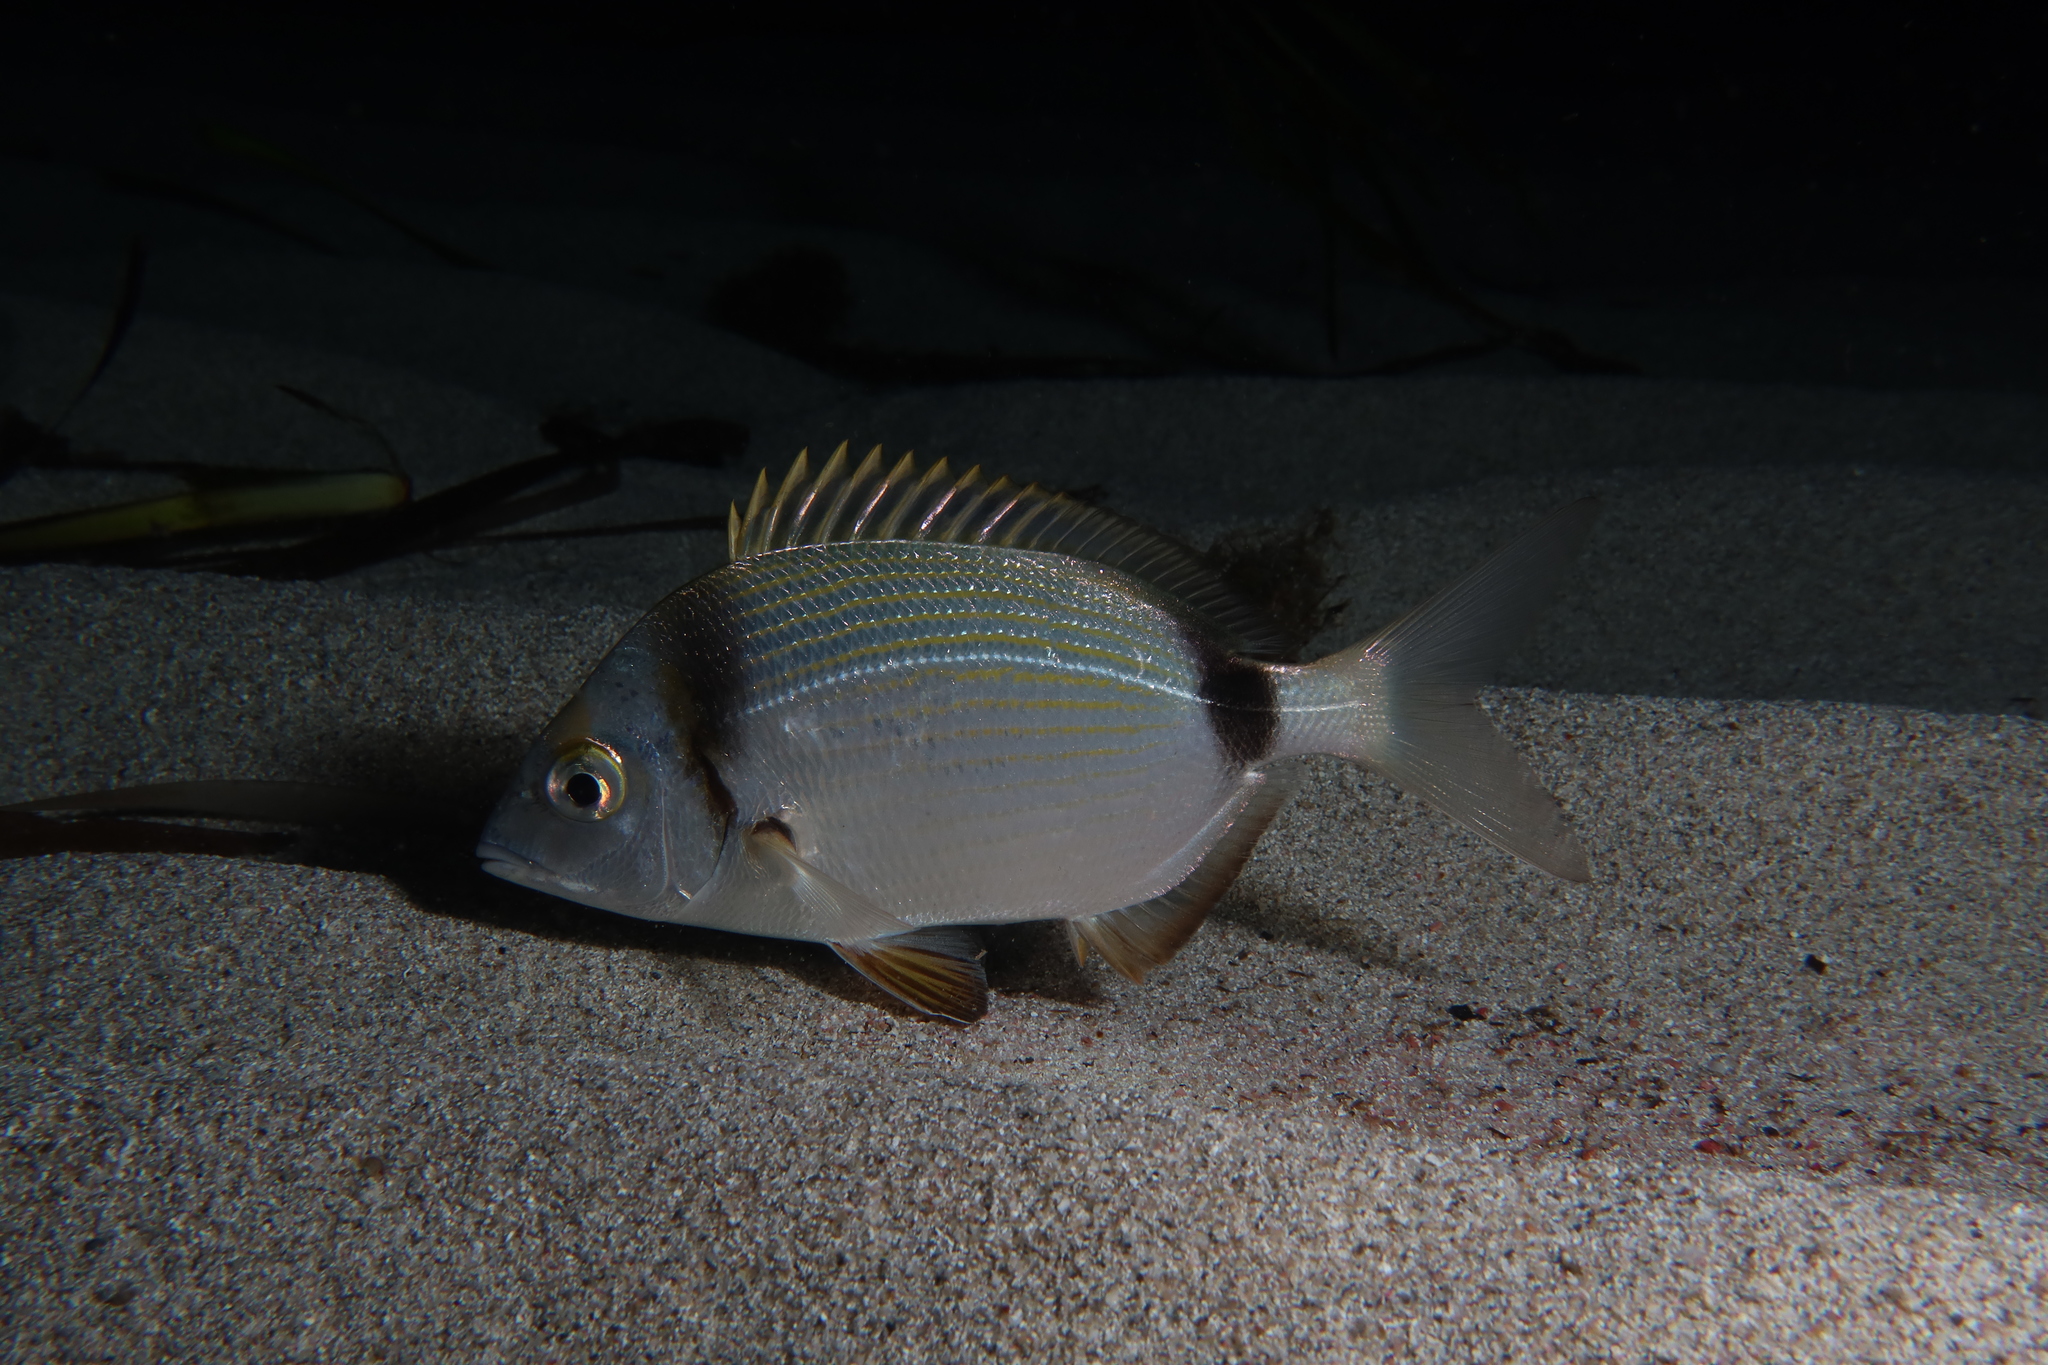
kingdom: Animalia
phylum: Chordata
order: Perciformes
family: Sparidae
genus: Diplodus
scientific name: Diplodus vulgaris
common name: Common two-banded seabream
